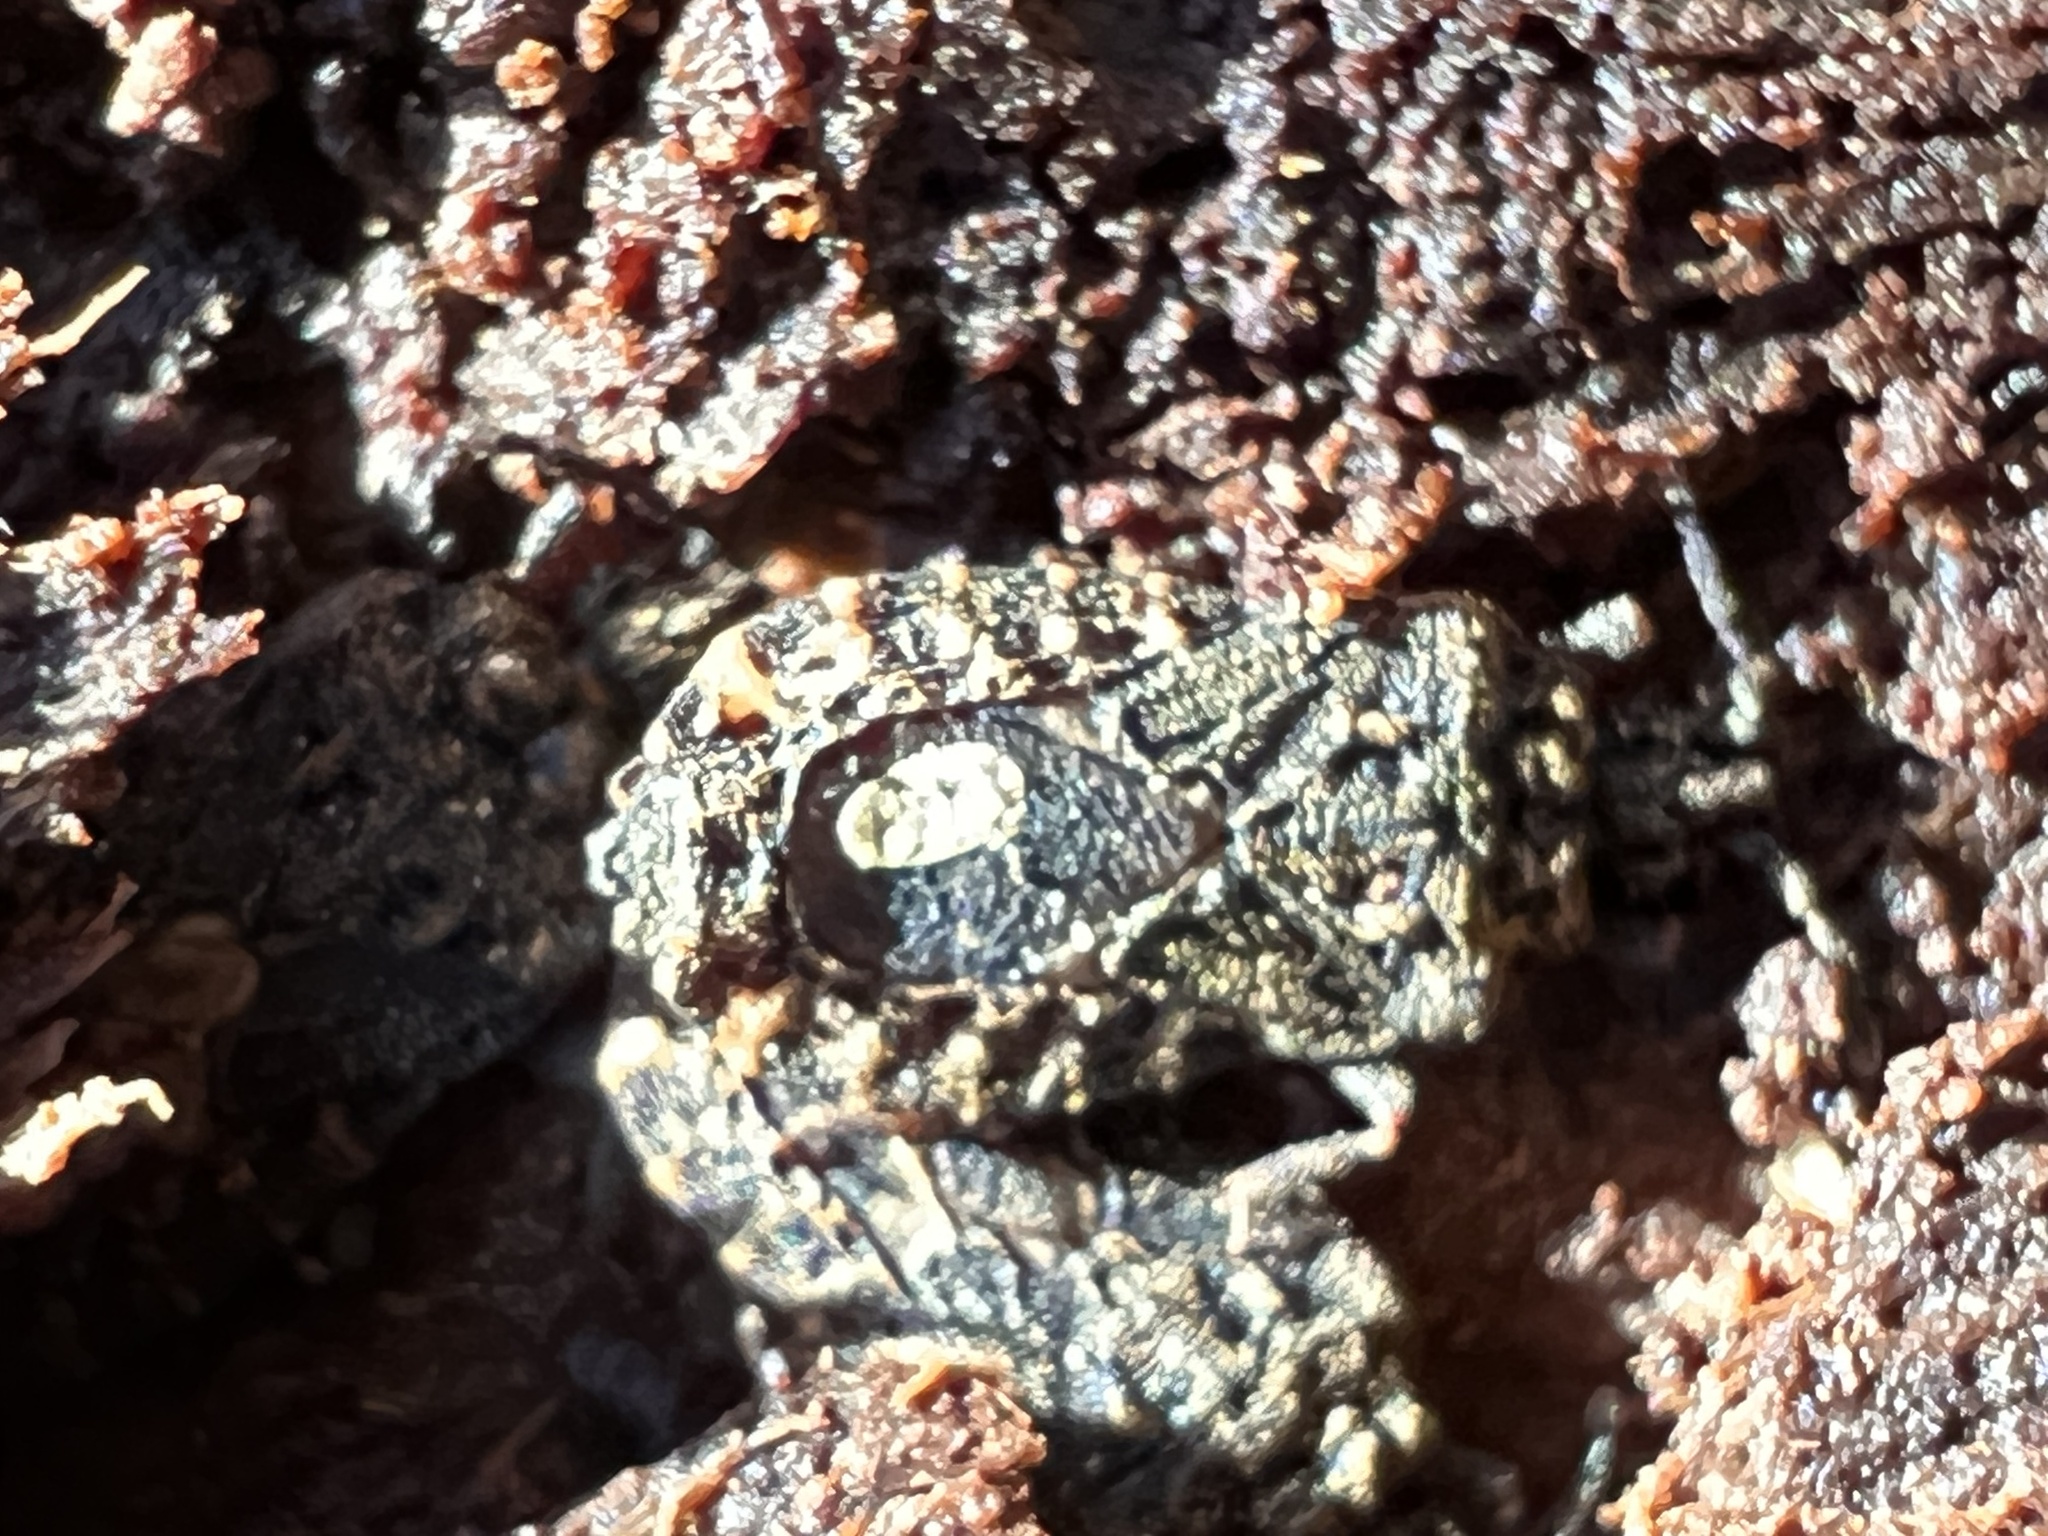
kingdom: Animalia
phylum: Arthropoda
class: Insecta
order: Hemiptera
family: Aradidae
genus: Mezira
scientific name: Mezira
